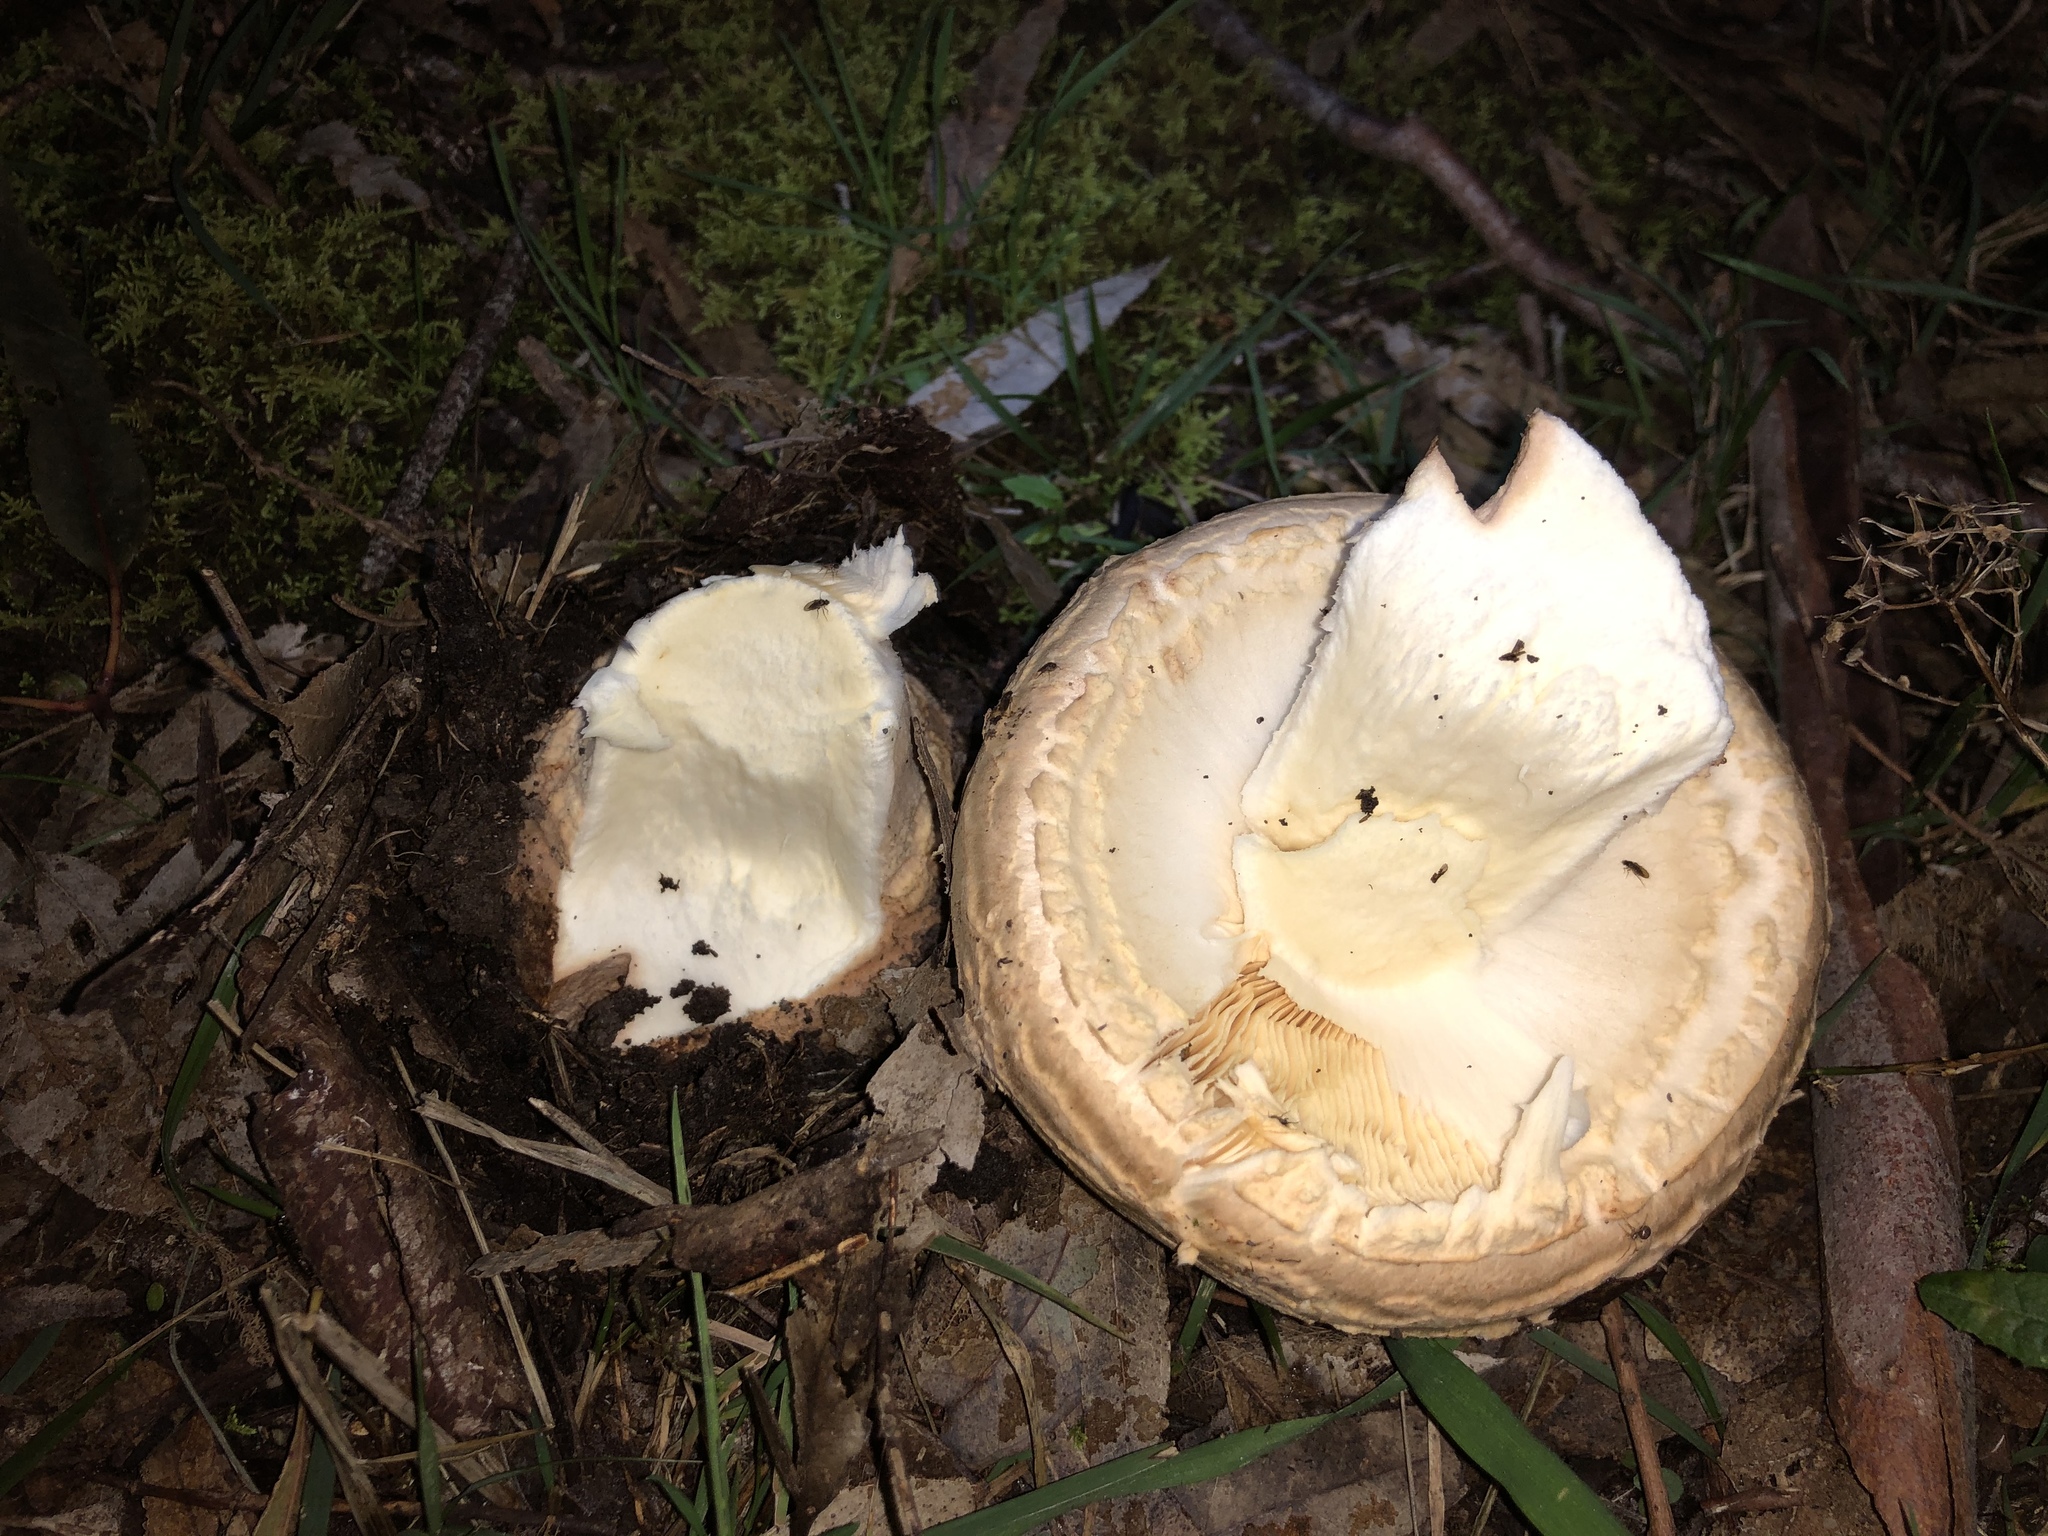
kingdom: Fungi
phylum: Basidiomycota
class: Agaricomycetes
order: Agaricales
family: Amanitaceae
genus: Amanita
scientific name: Amanita ochrophylla
